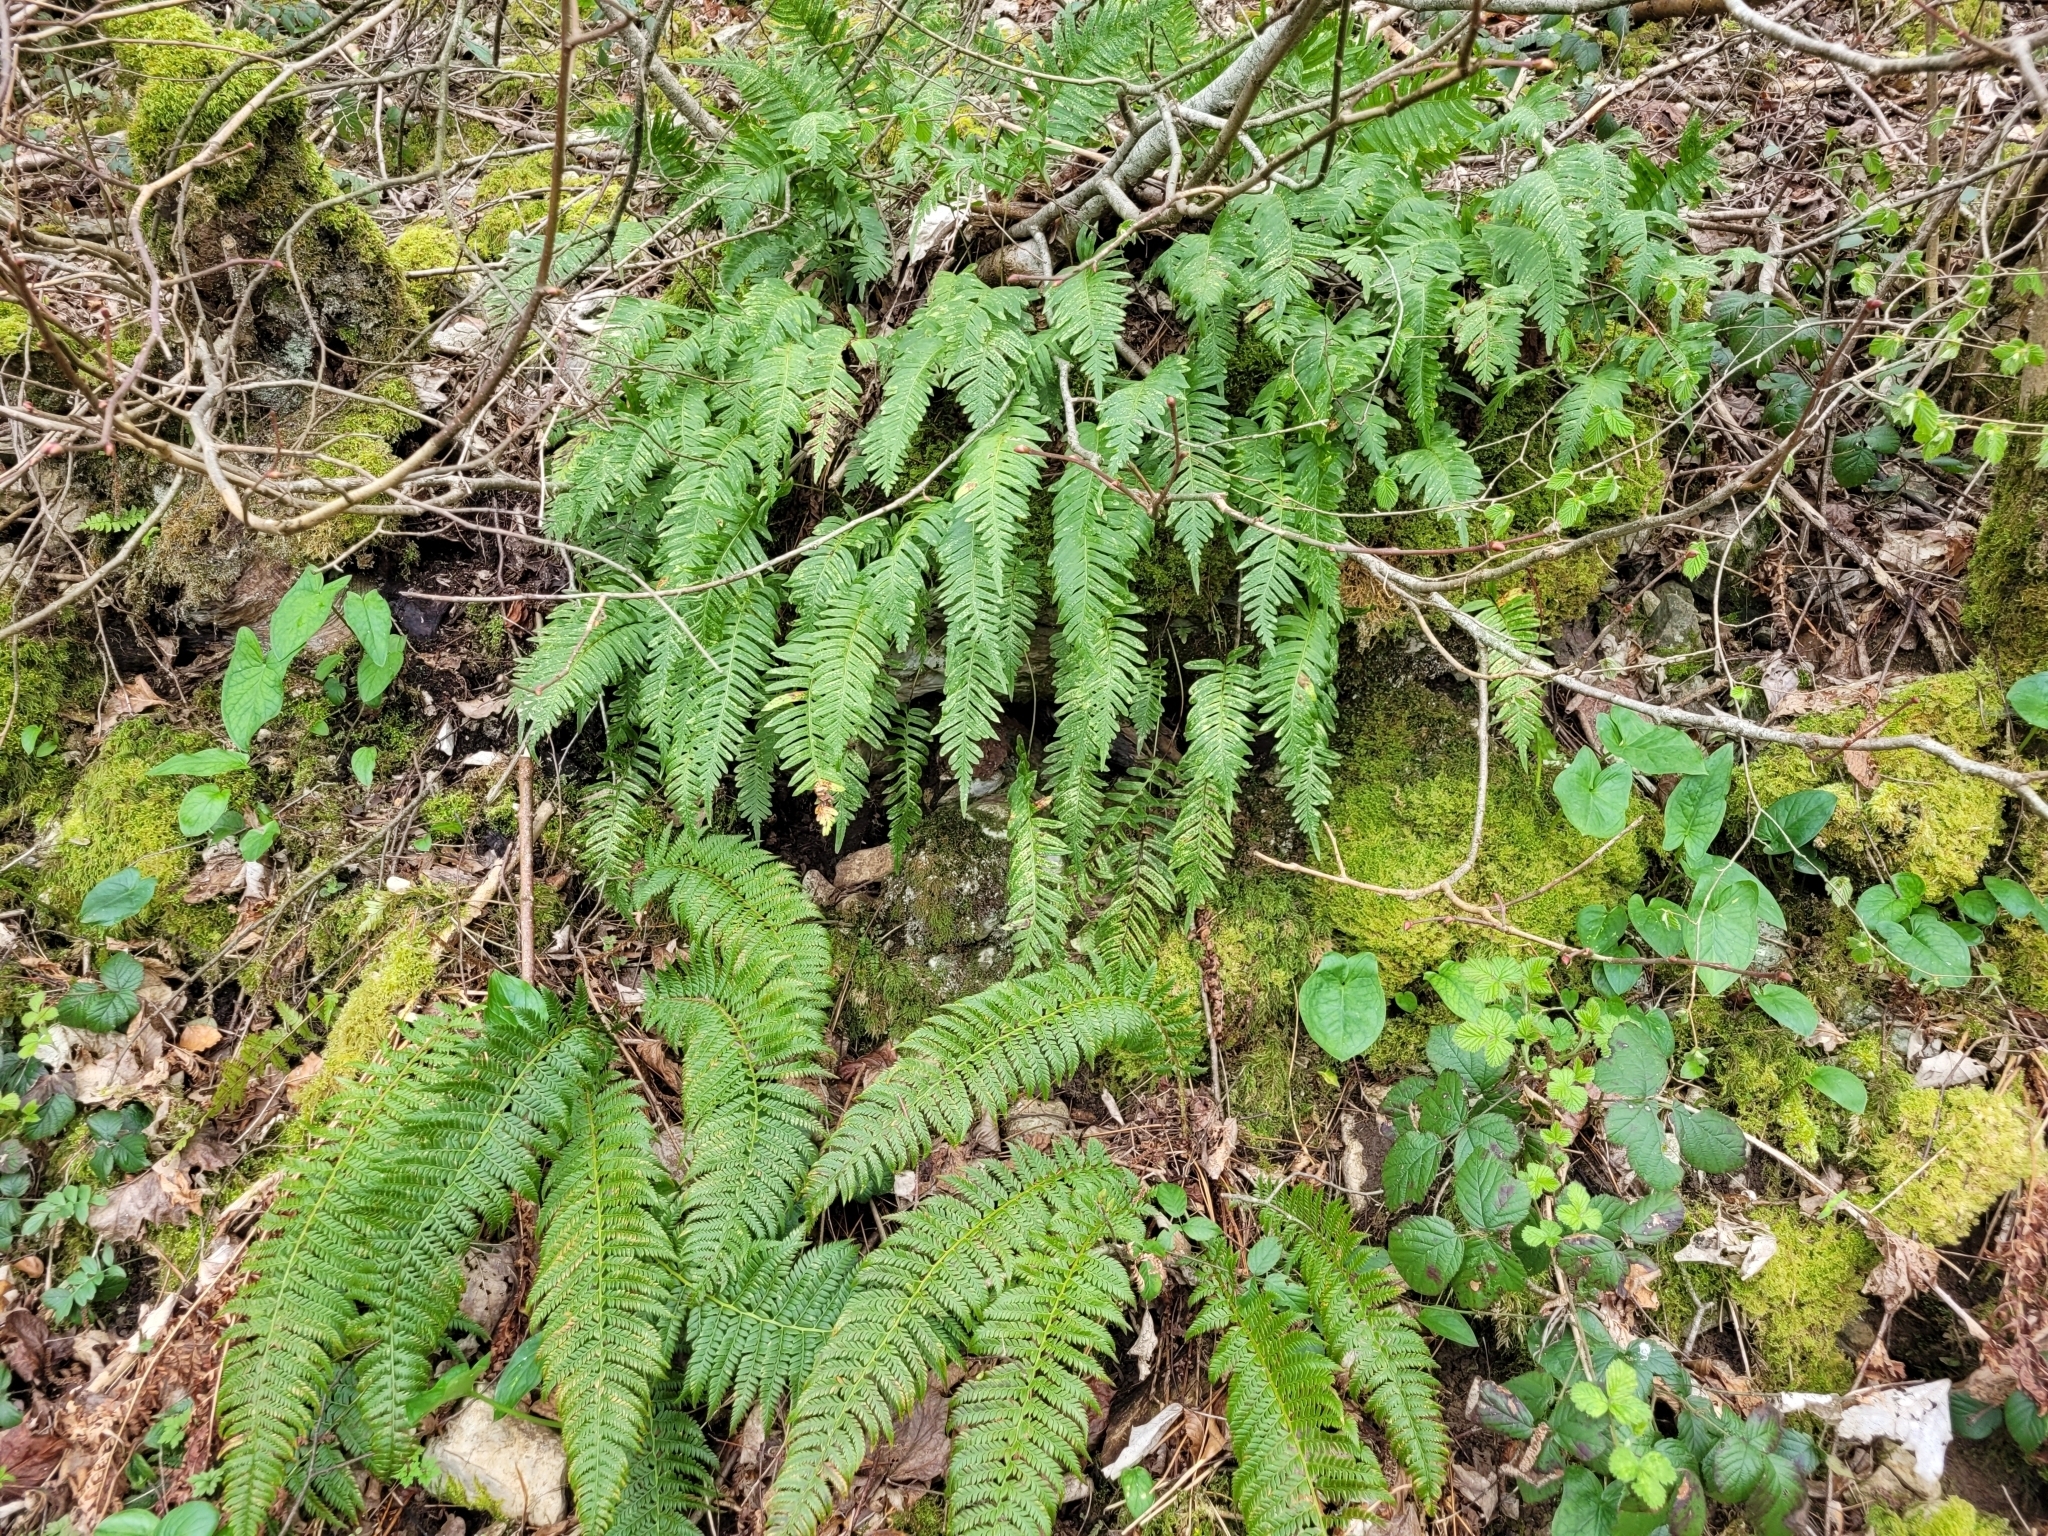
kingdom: Plantae
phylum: Tracheophyta
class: Polypodiopsida
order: Polypodiales
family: Polypodiaceae
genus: Polypodium
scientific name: Polypodium interjectum
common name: Intermediate polypody
